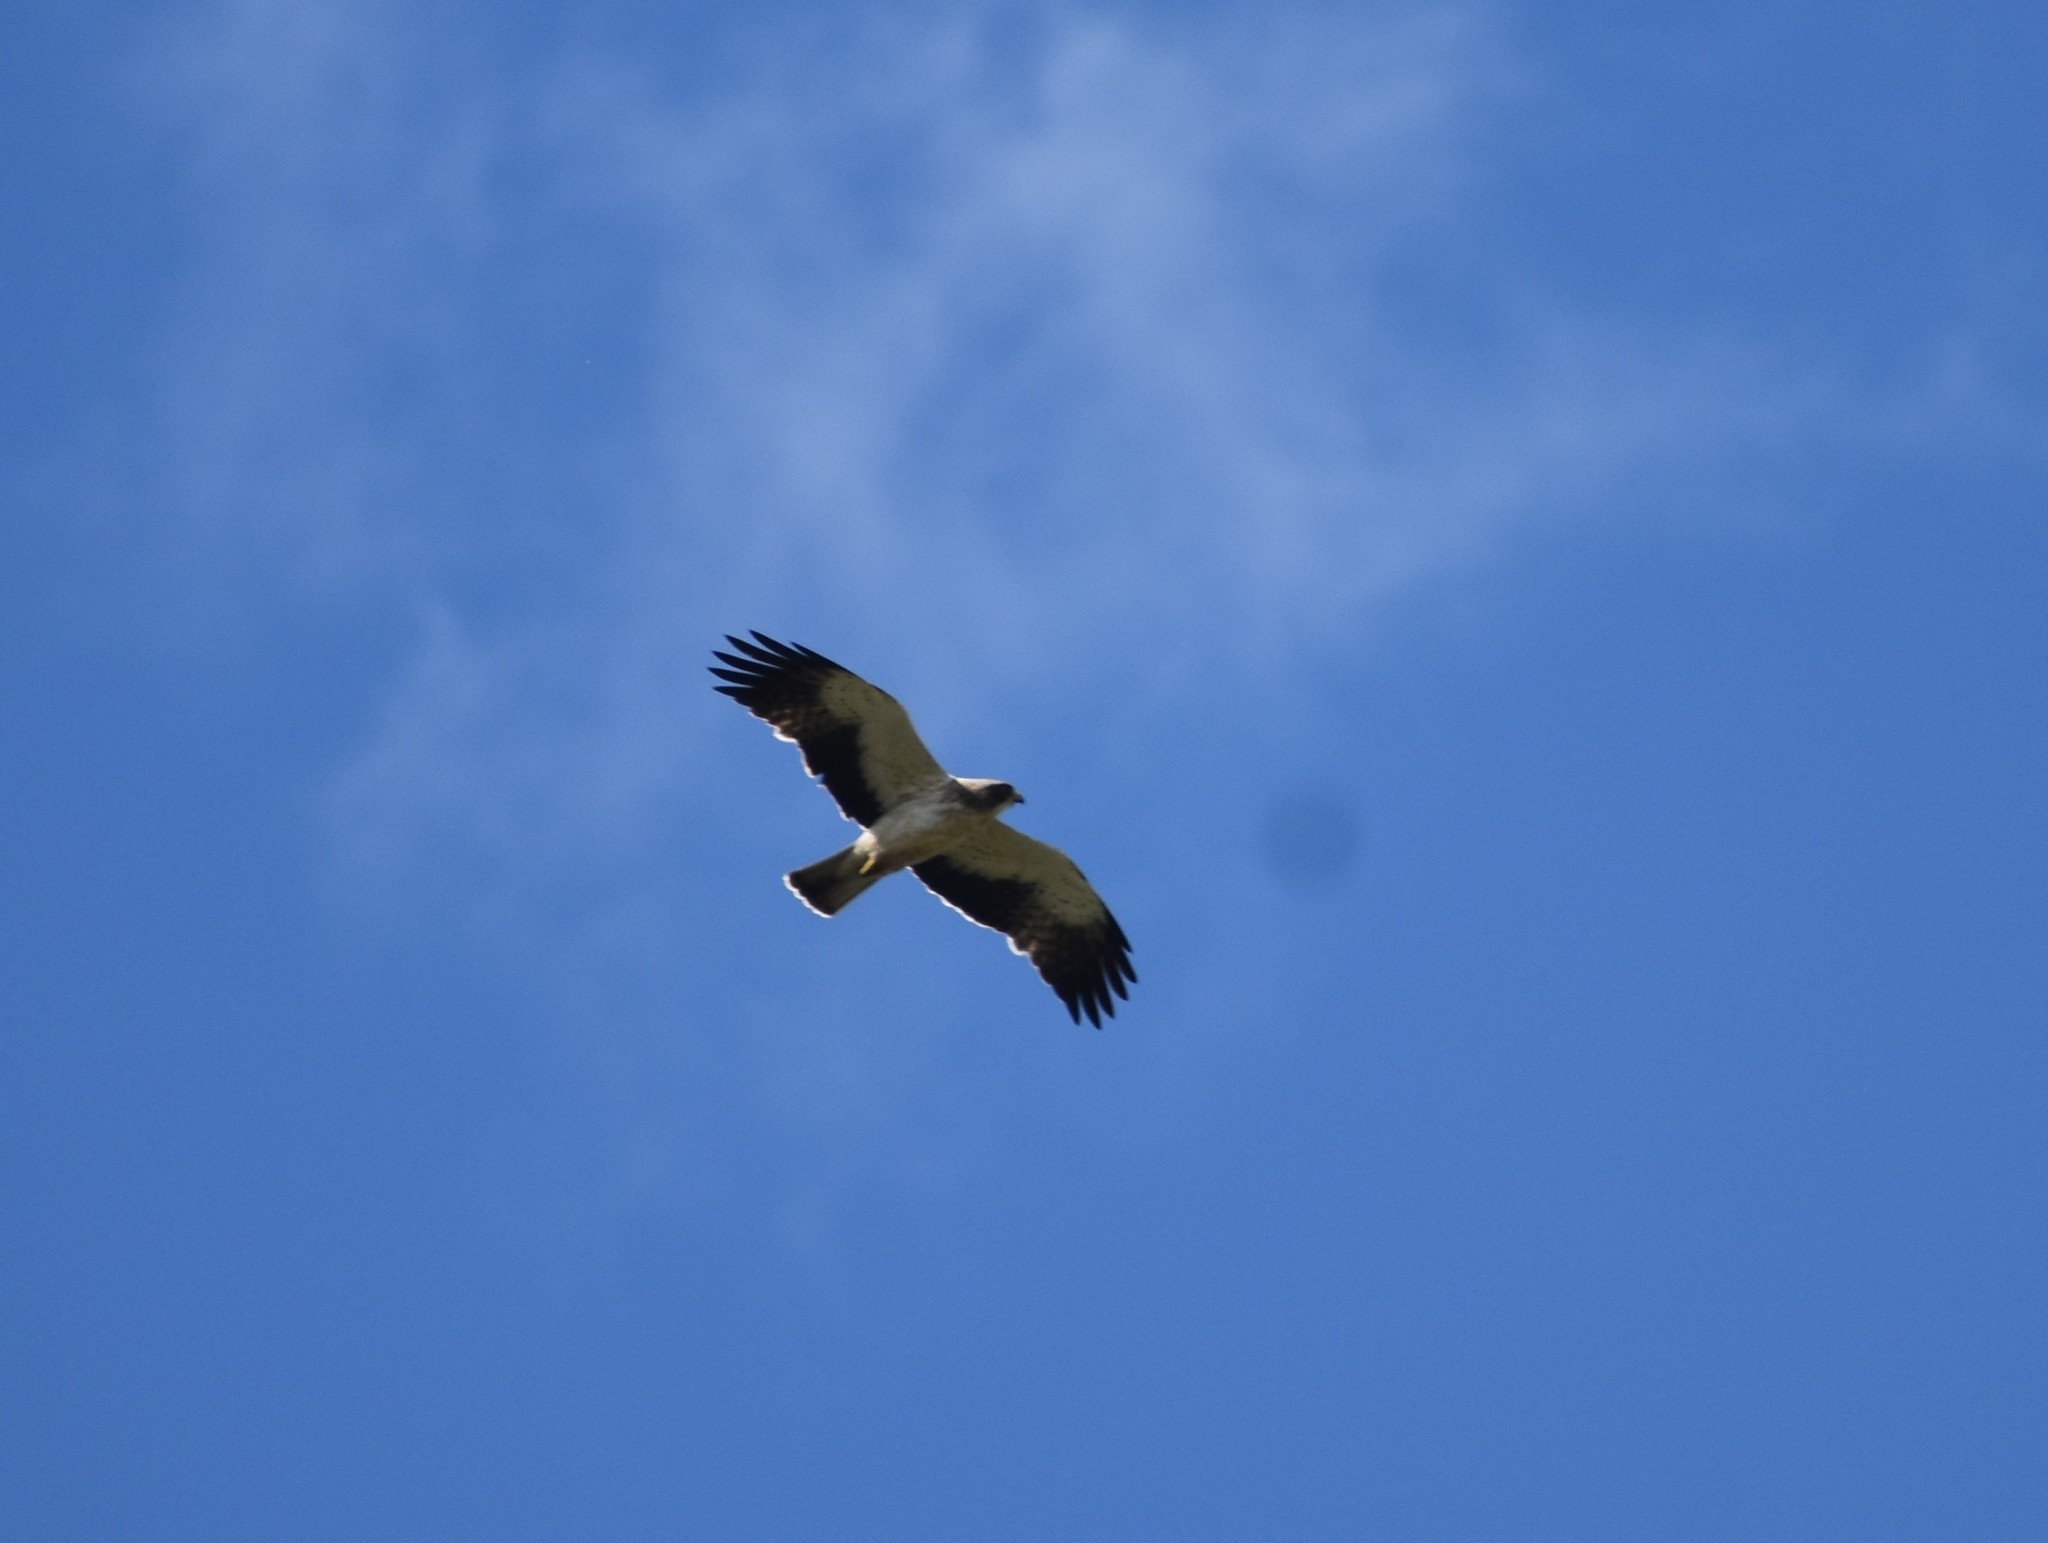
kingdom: Animalia
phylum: Chordata
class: Aves
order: Accipitriformes
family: Accipitridae
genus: Hieraaetus
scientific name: Hieraaetus pennatus
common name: Booted eagle
